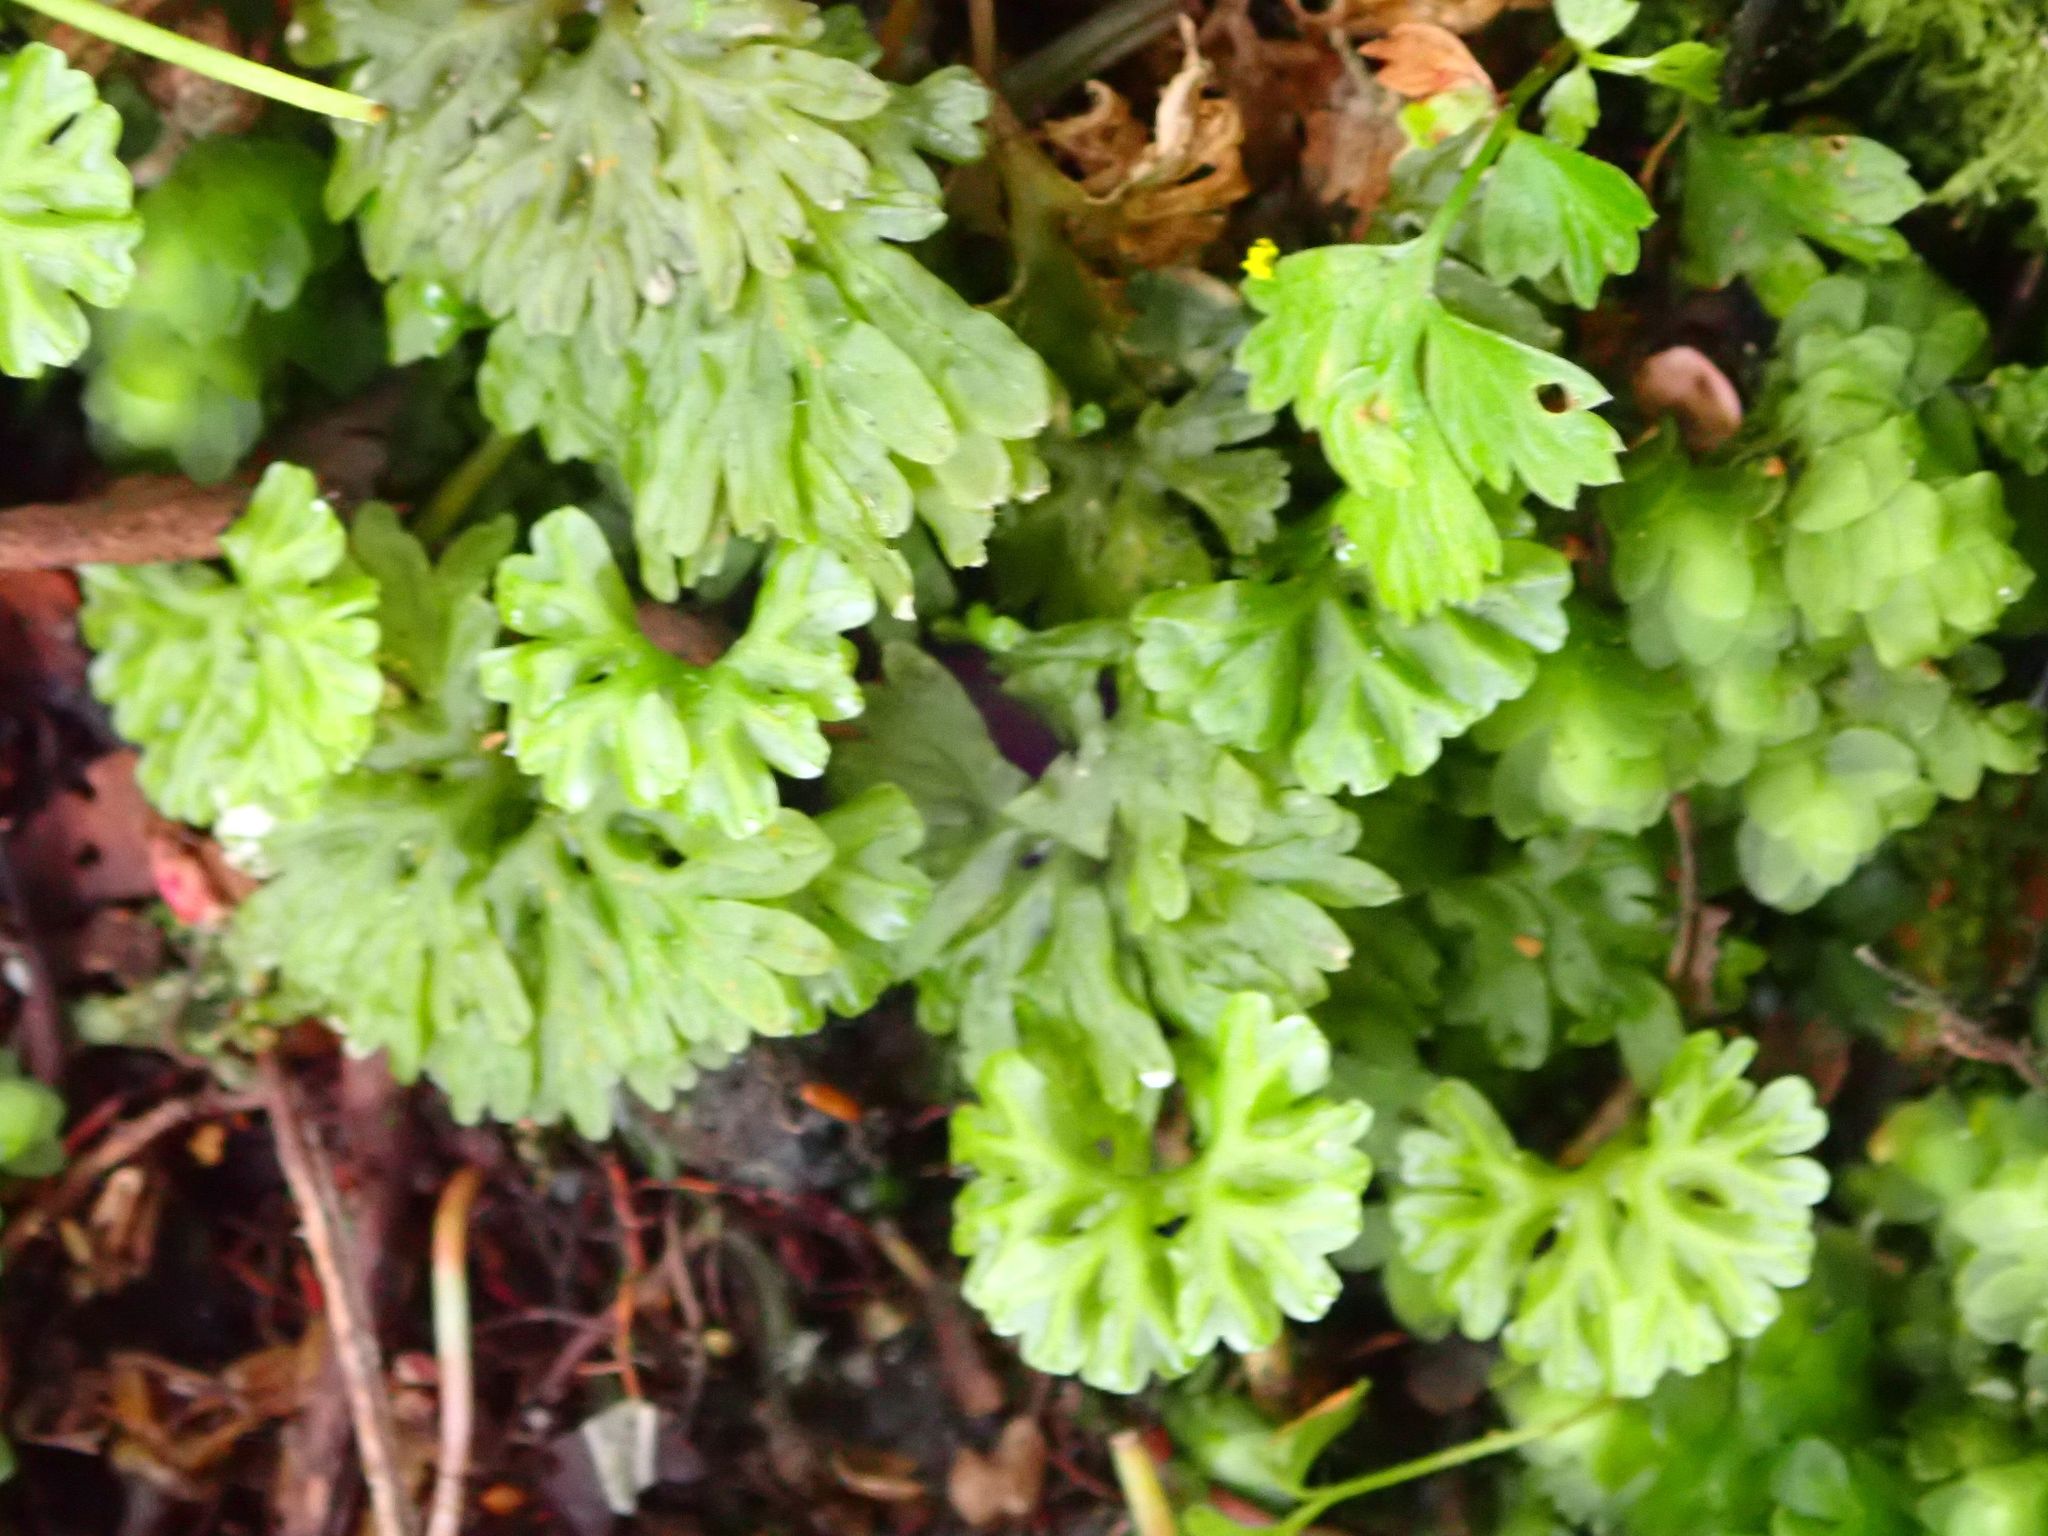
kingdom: Plantae
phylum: Marchantiophyta
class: Jungermanniopsida
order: Pallaviciniales
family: Hymenophytaceae
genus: Hymenophyton
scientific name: Hymenophyton flabellatum
